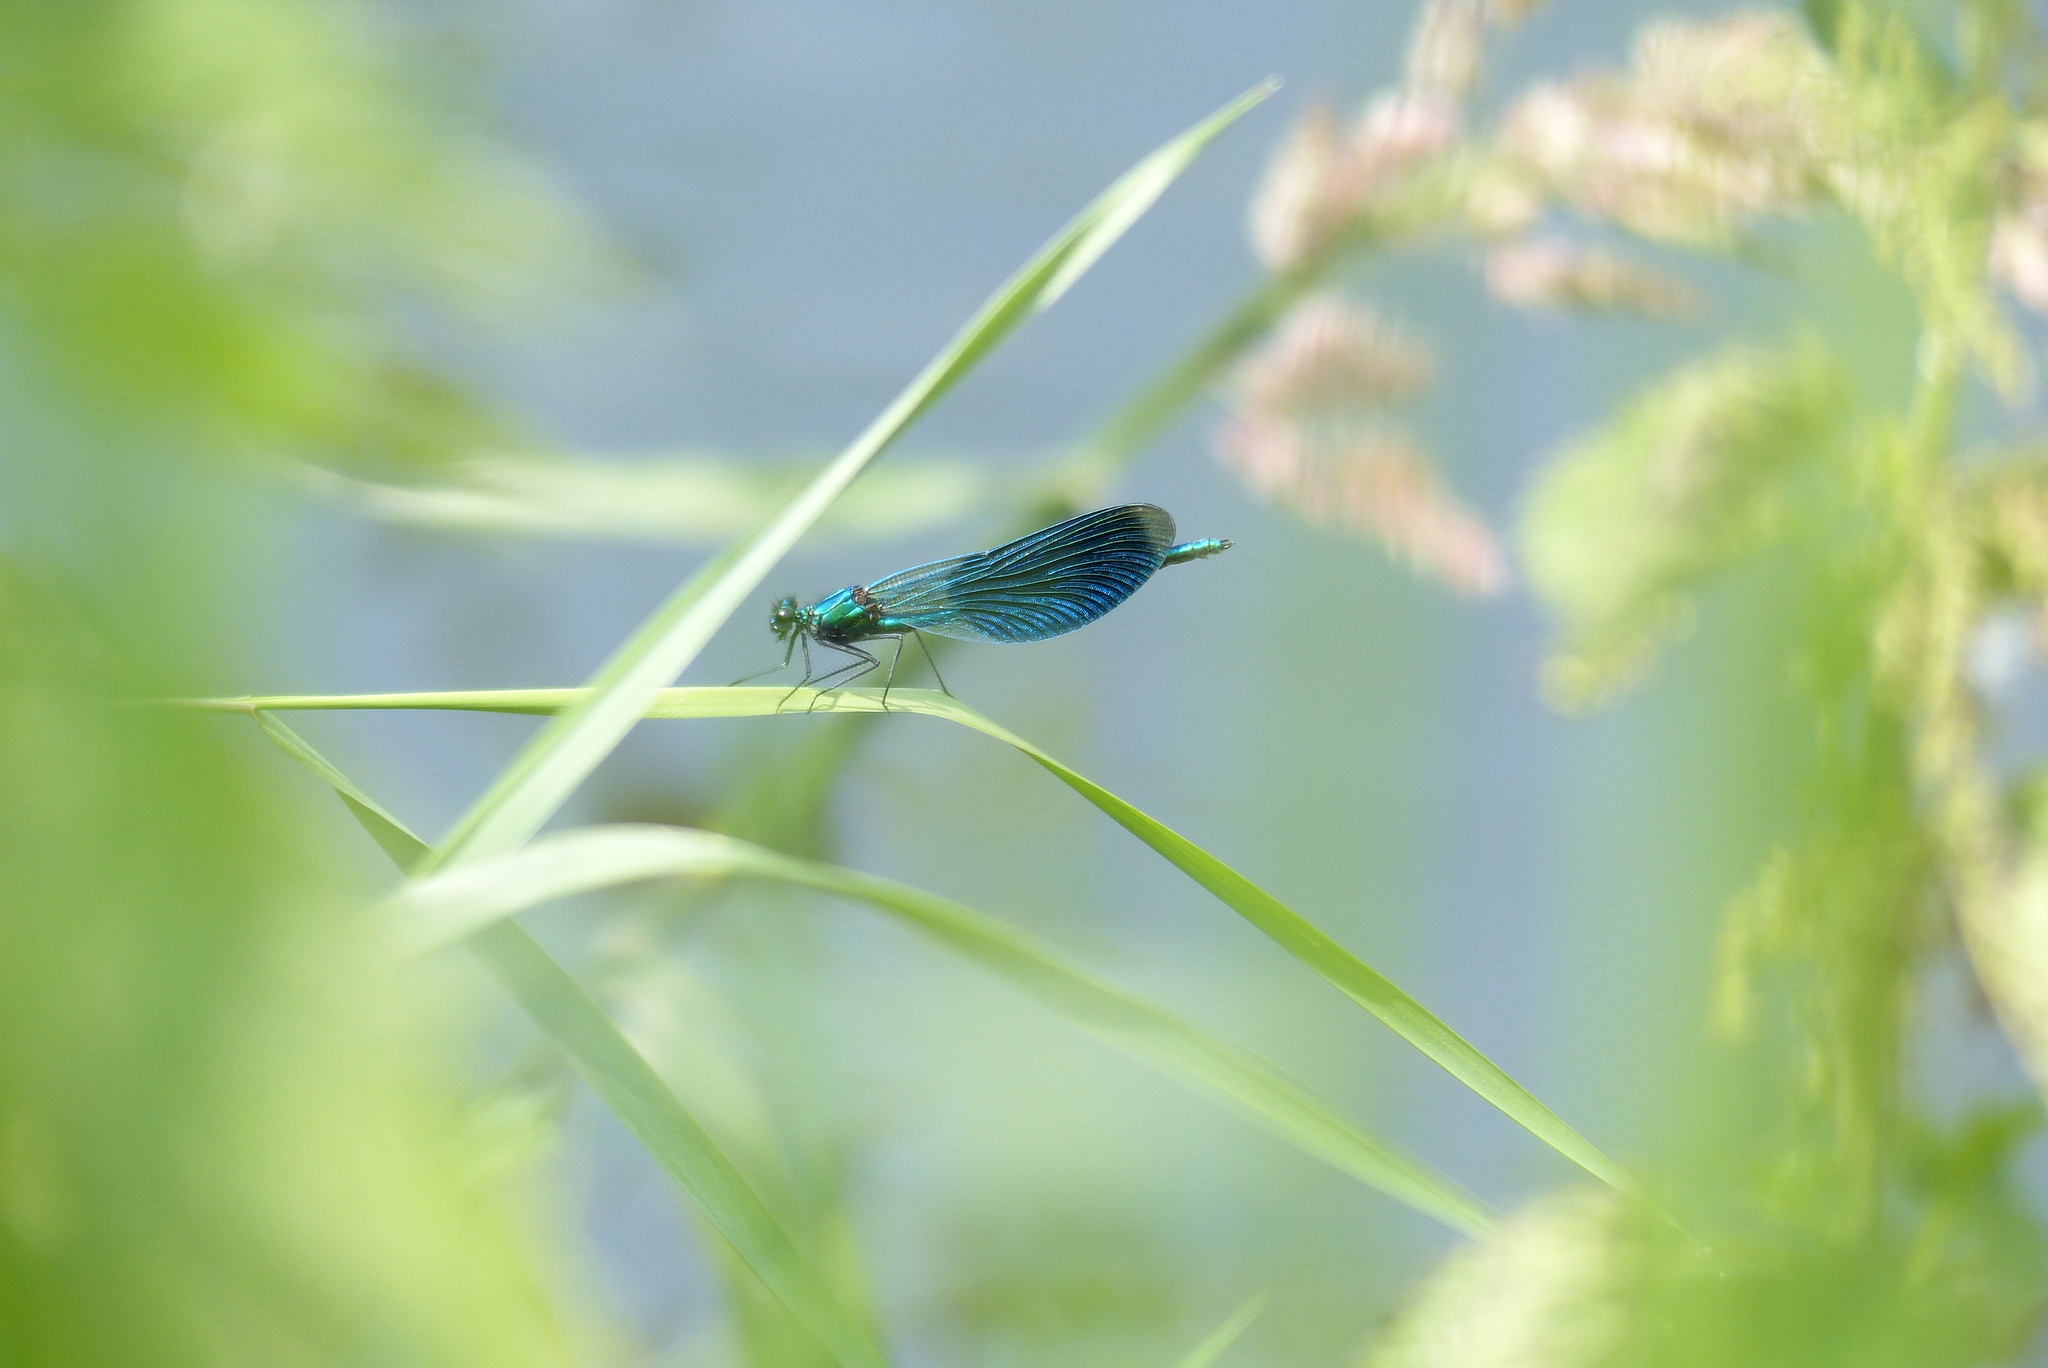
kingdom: Animalia
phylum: Arthropoda
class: Insecta
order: Odonata
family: Calopterygidae
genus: Calopteryx
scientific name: Calopteryx splendens
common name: Banded demoiselle
